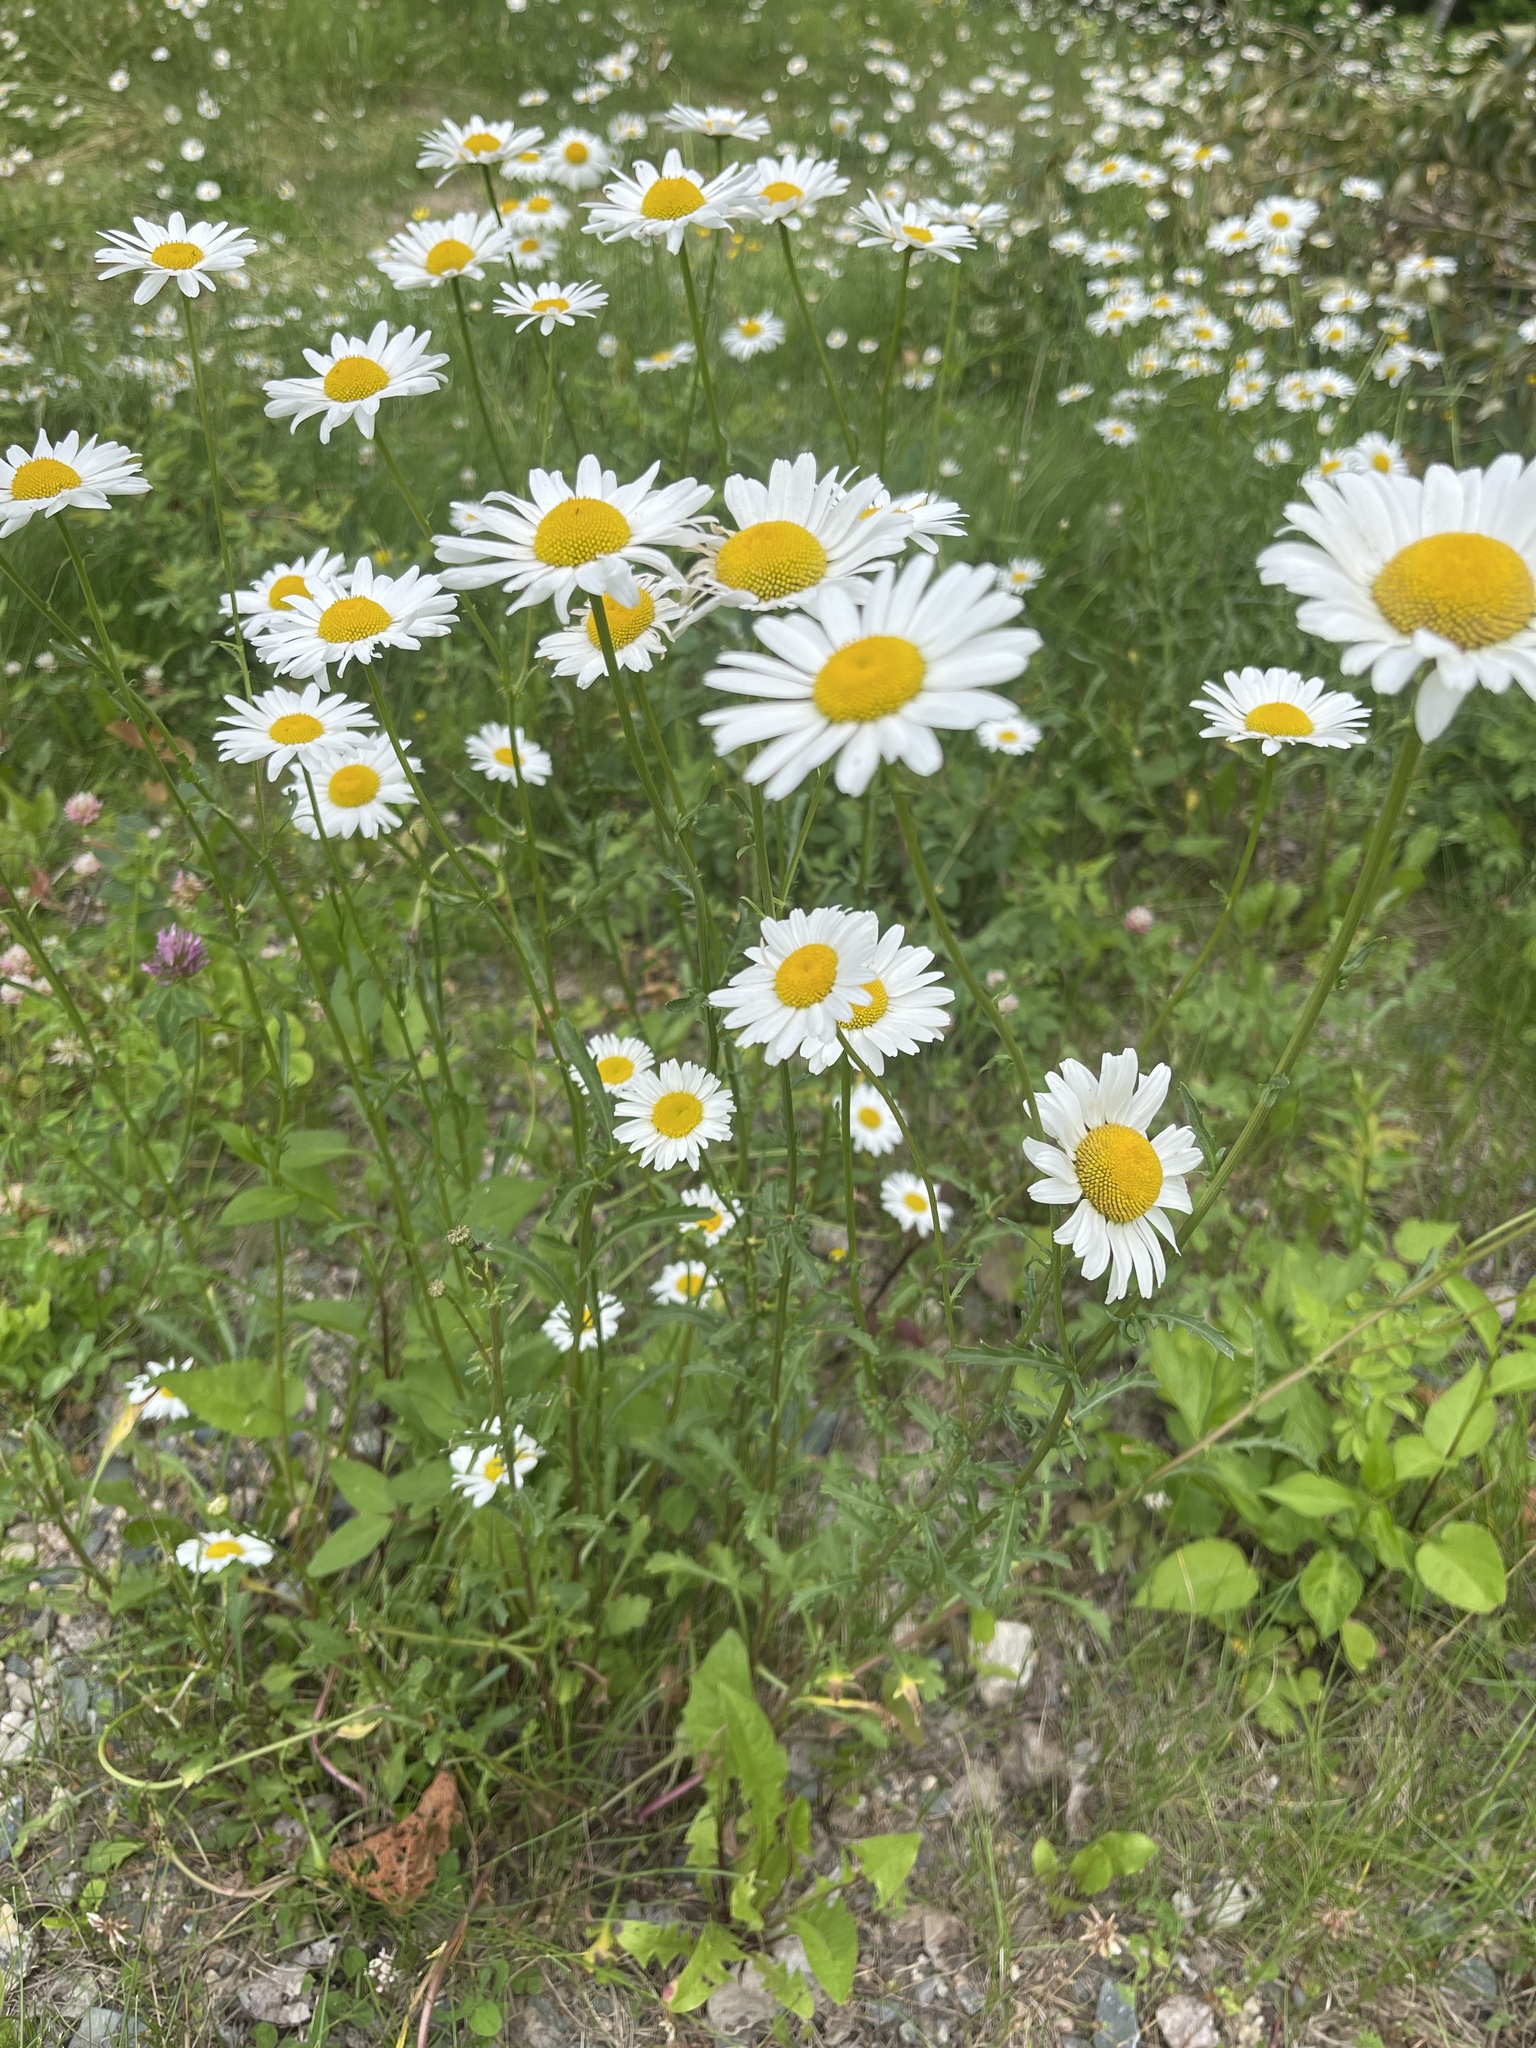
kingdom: Plantae
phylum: Tracheophyta
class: Magnoliopsida
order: Asterales
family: Asteraceae
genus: Leucanthemum
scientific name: Leucanthemum vulgare
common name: Oxeye daisy
